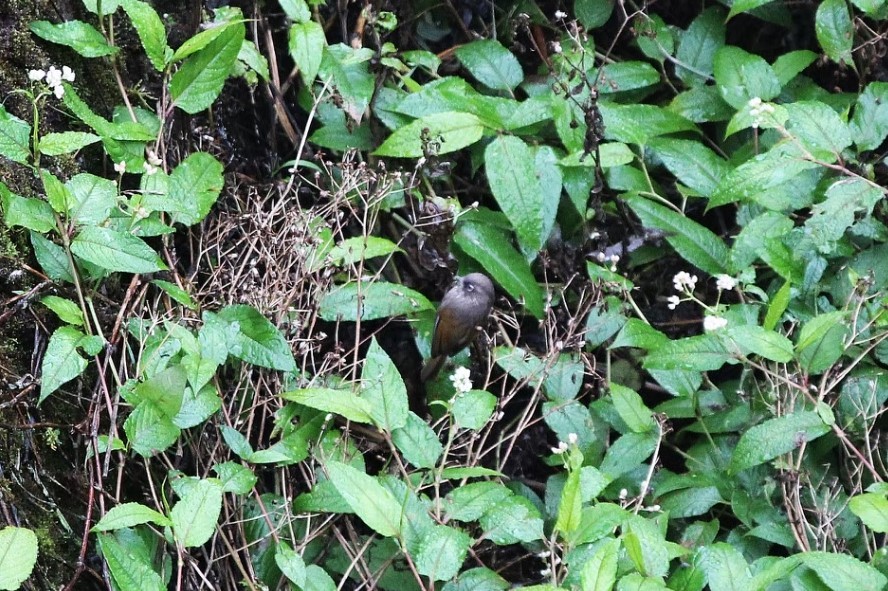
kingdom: Animalia
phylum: Chordata
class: Aves
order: Passeriformes
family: Sylviidae
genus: Fulvetta
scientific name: Fulvetta formosana
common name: Taiwan fulvetta
